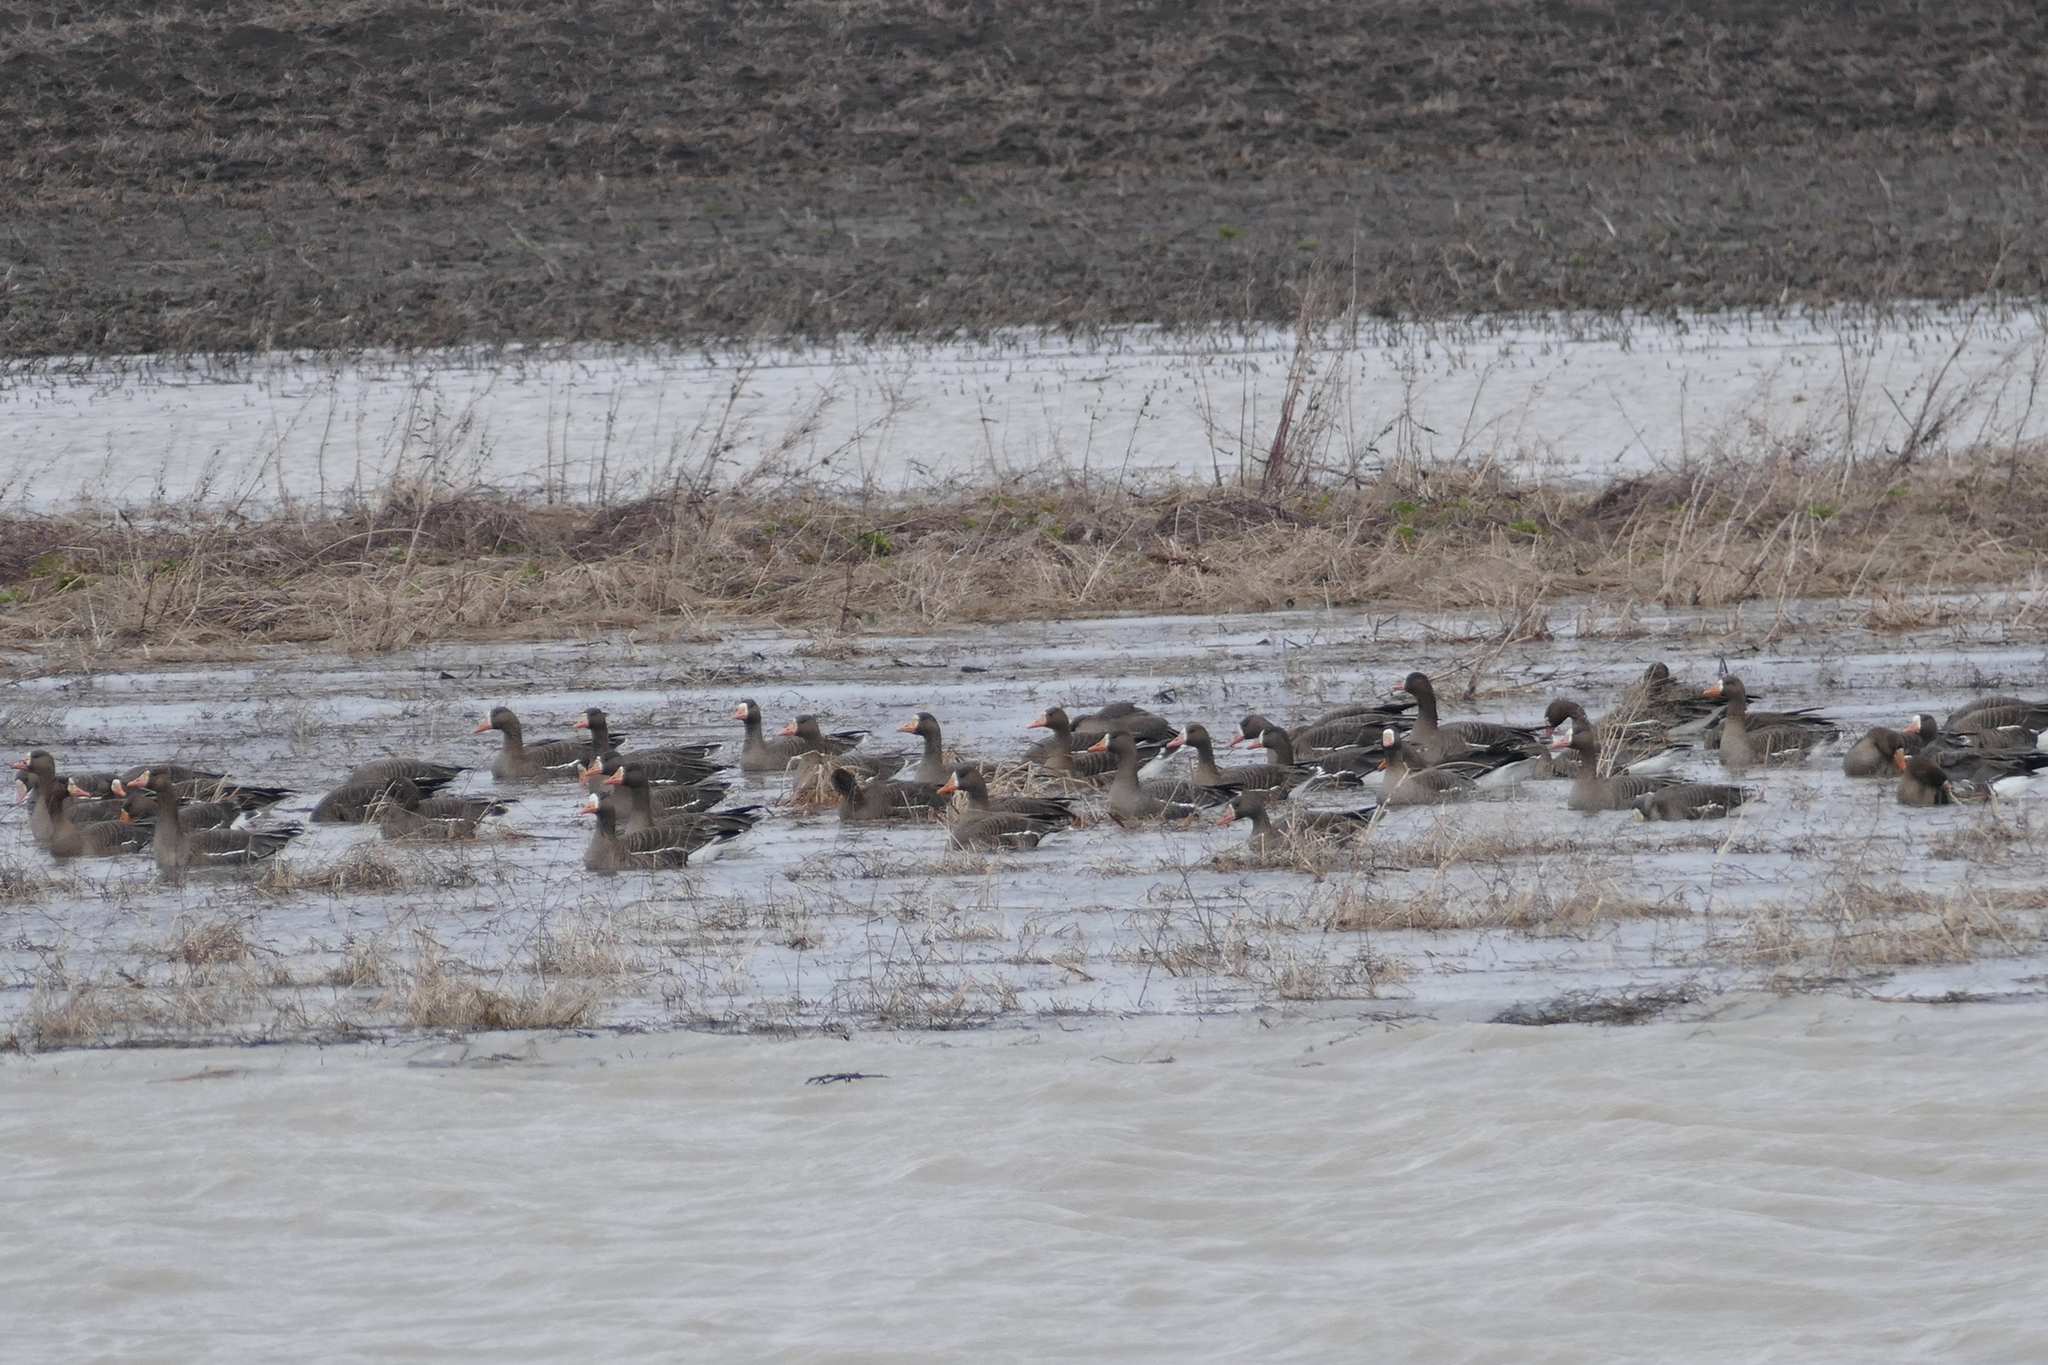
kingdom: Animalia
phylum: Chordata
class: Aves
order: Anseriformes
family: Anatidae
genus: Anser
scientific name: Anser albifrons
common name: Greater white-fronted goose
